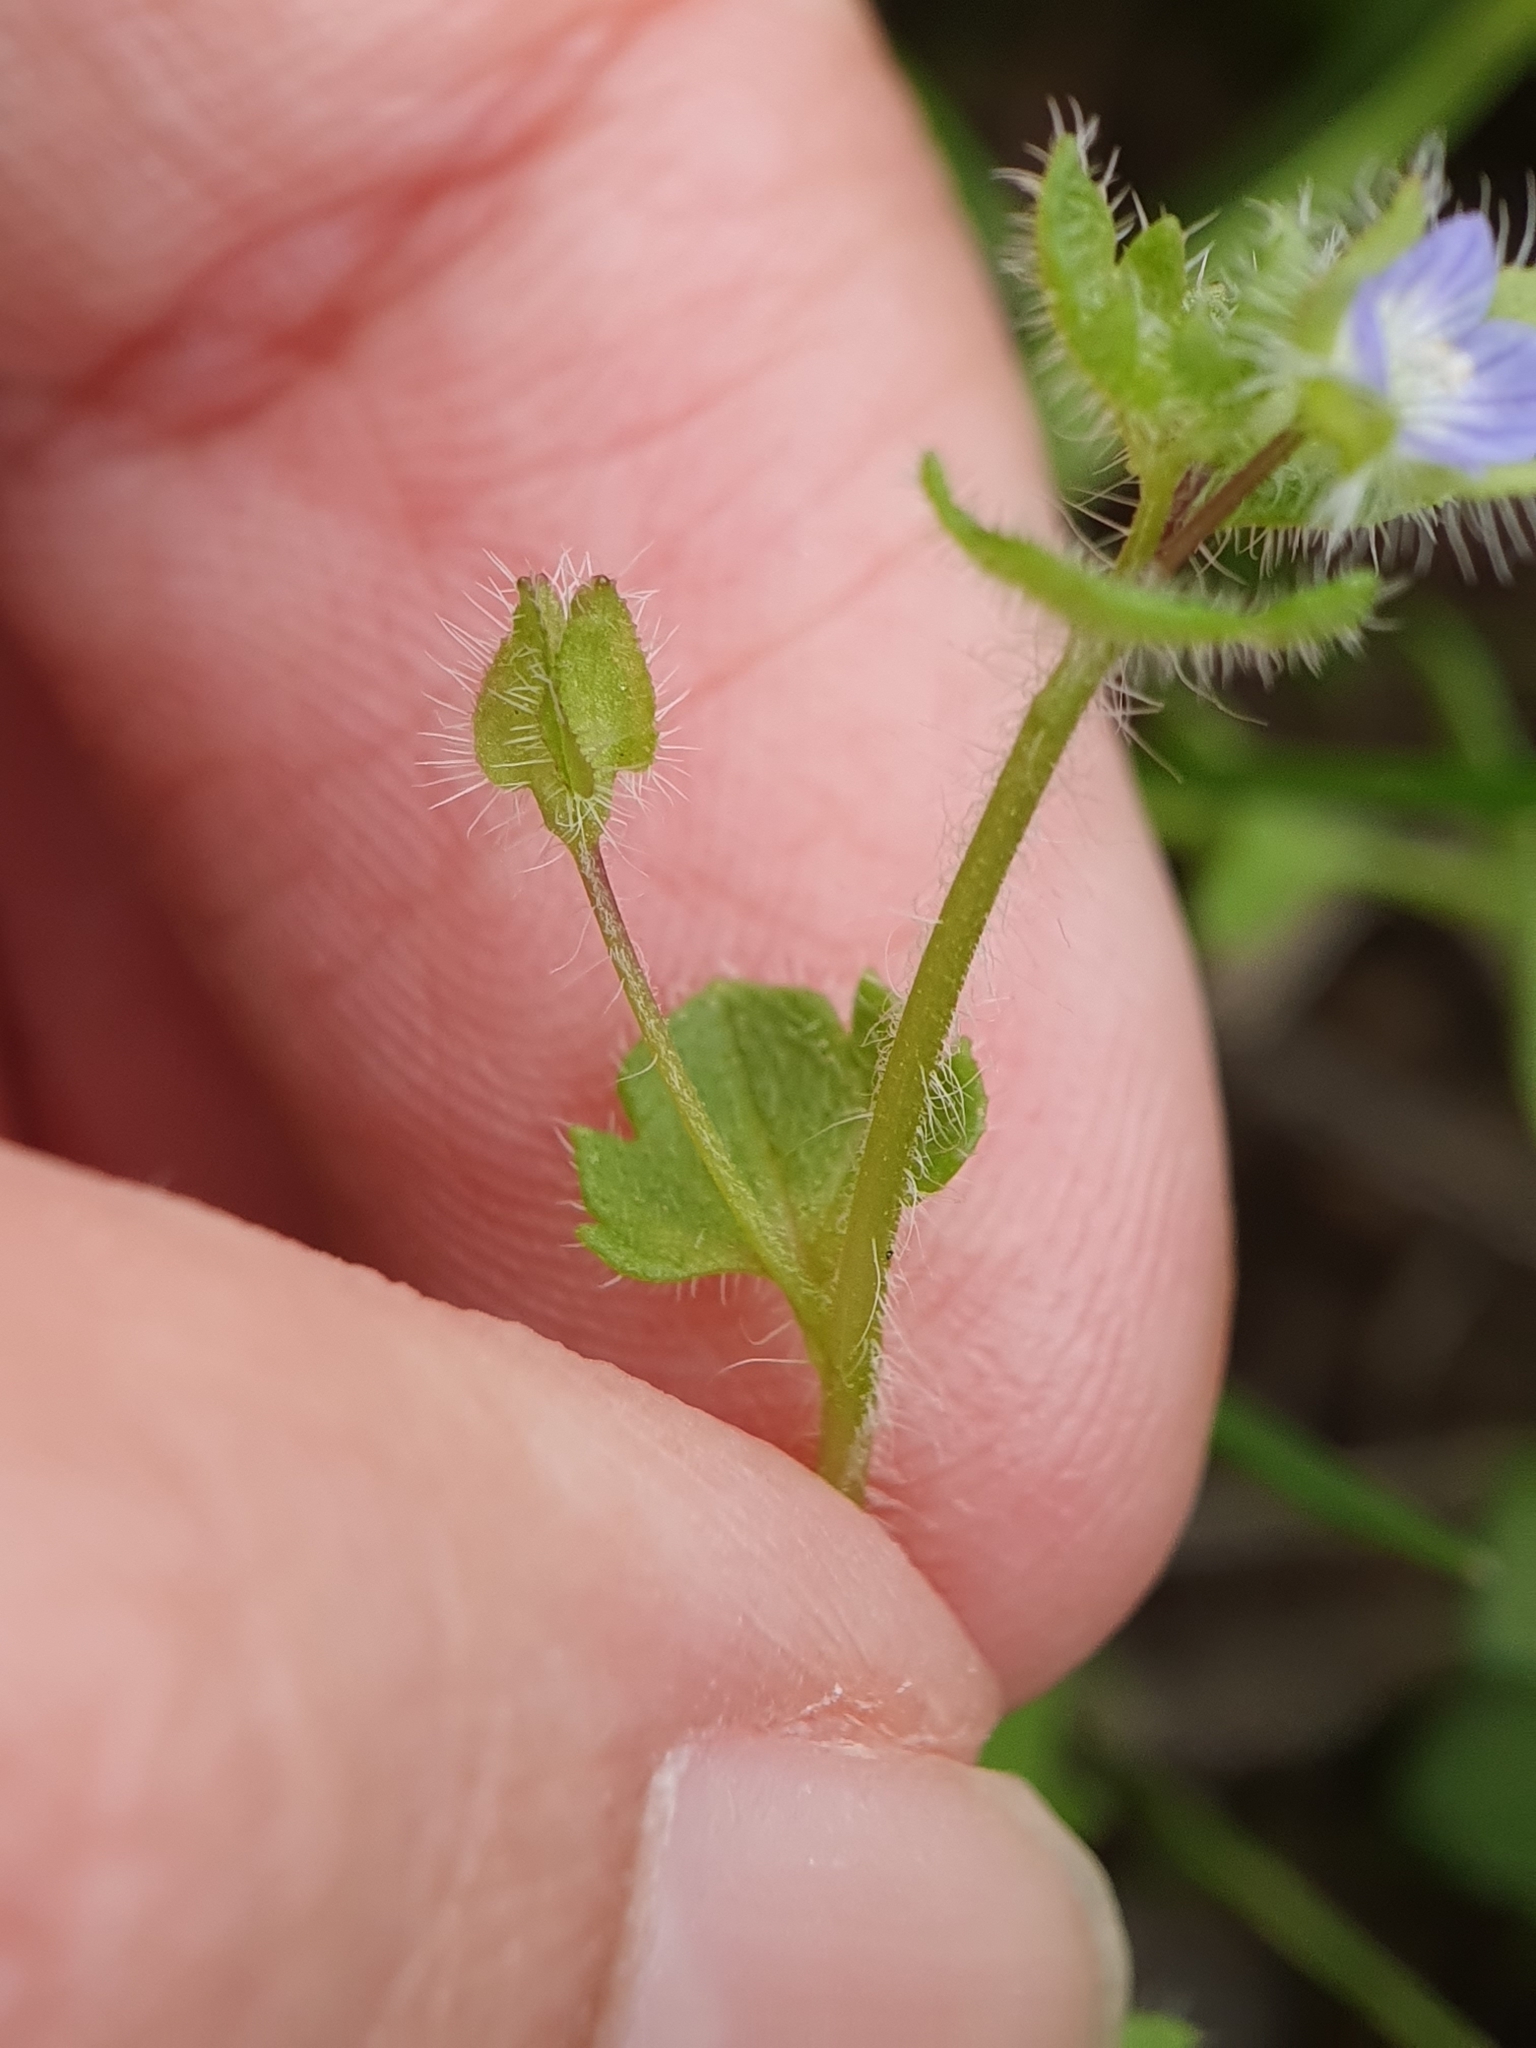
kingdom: Plantae
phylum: Tracheophyta
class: Magnoliopsida
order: Lamiales
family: Plantaginaceae
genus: Veronica
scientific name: Veronica hederifolia
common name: Ivy-leaved speedwell
